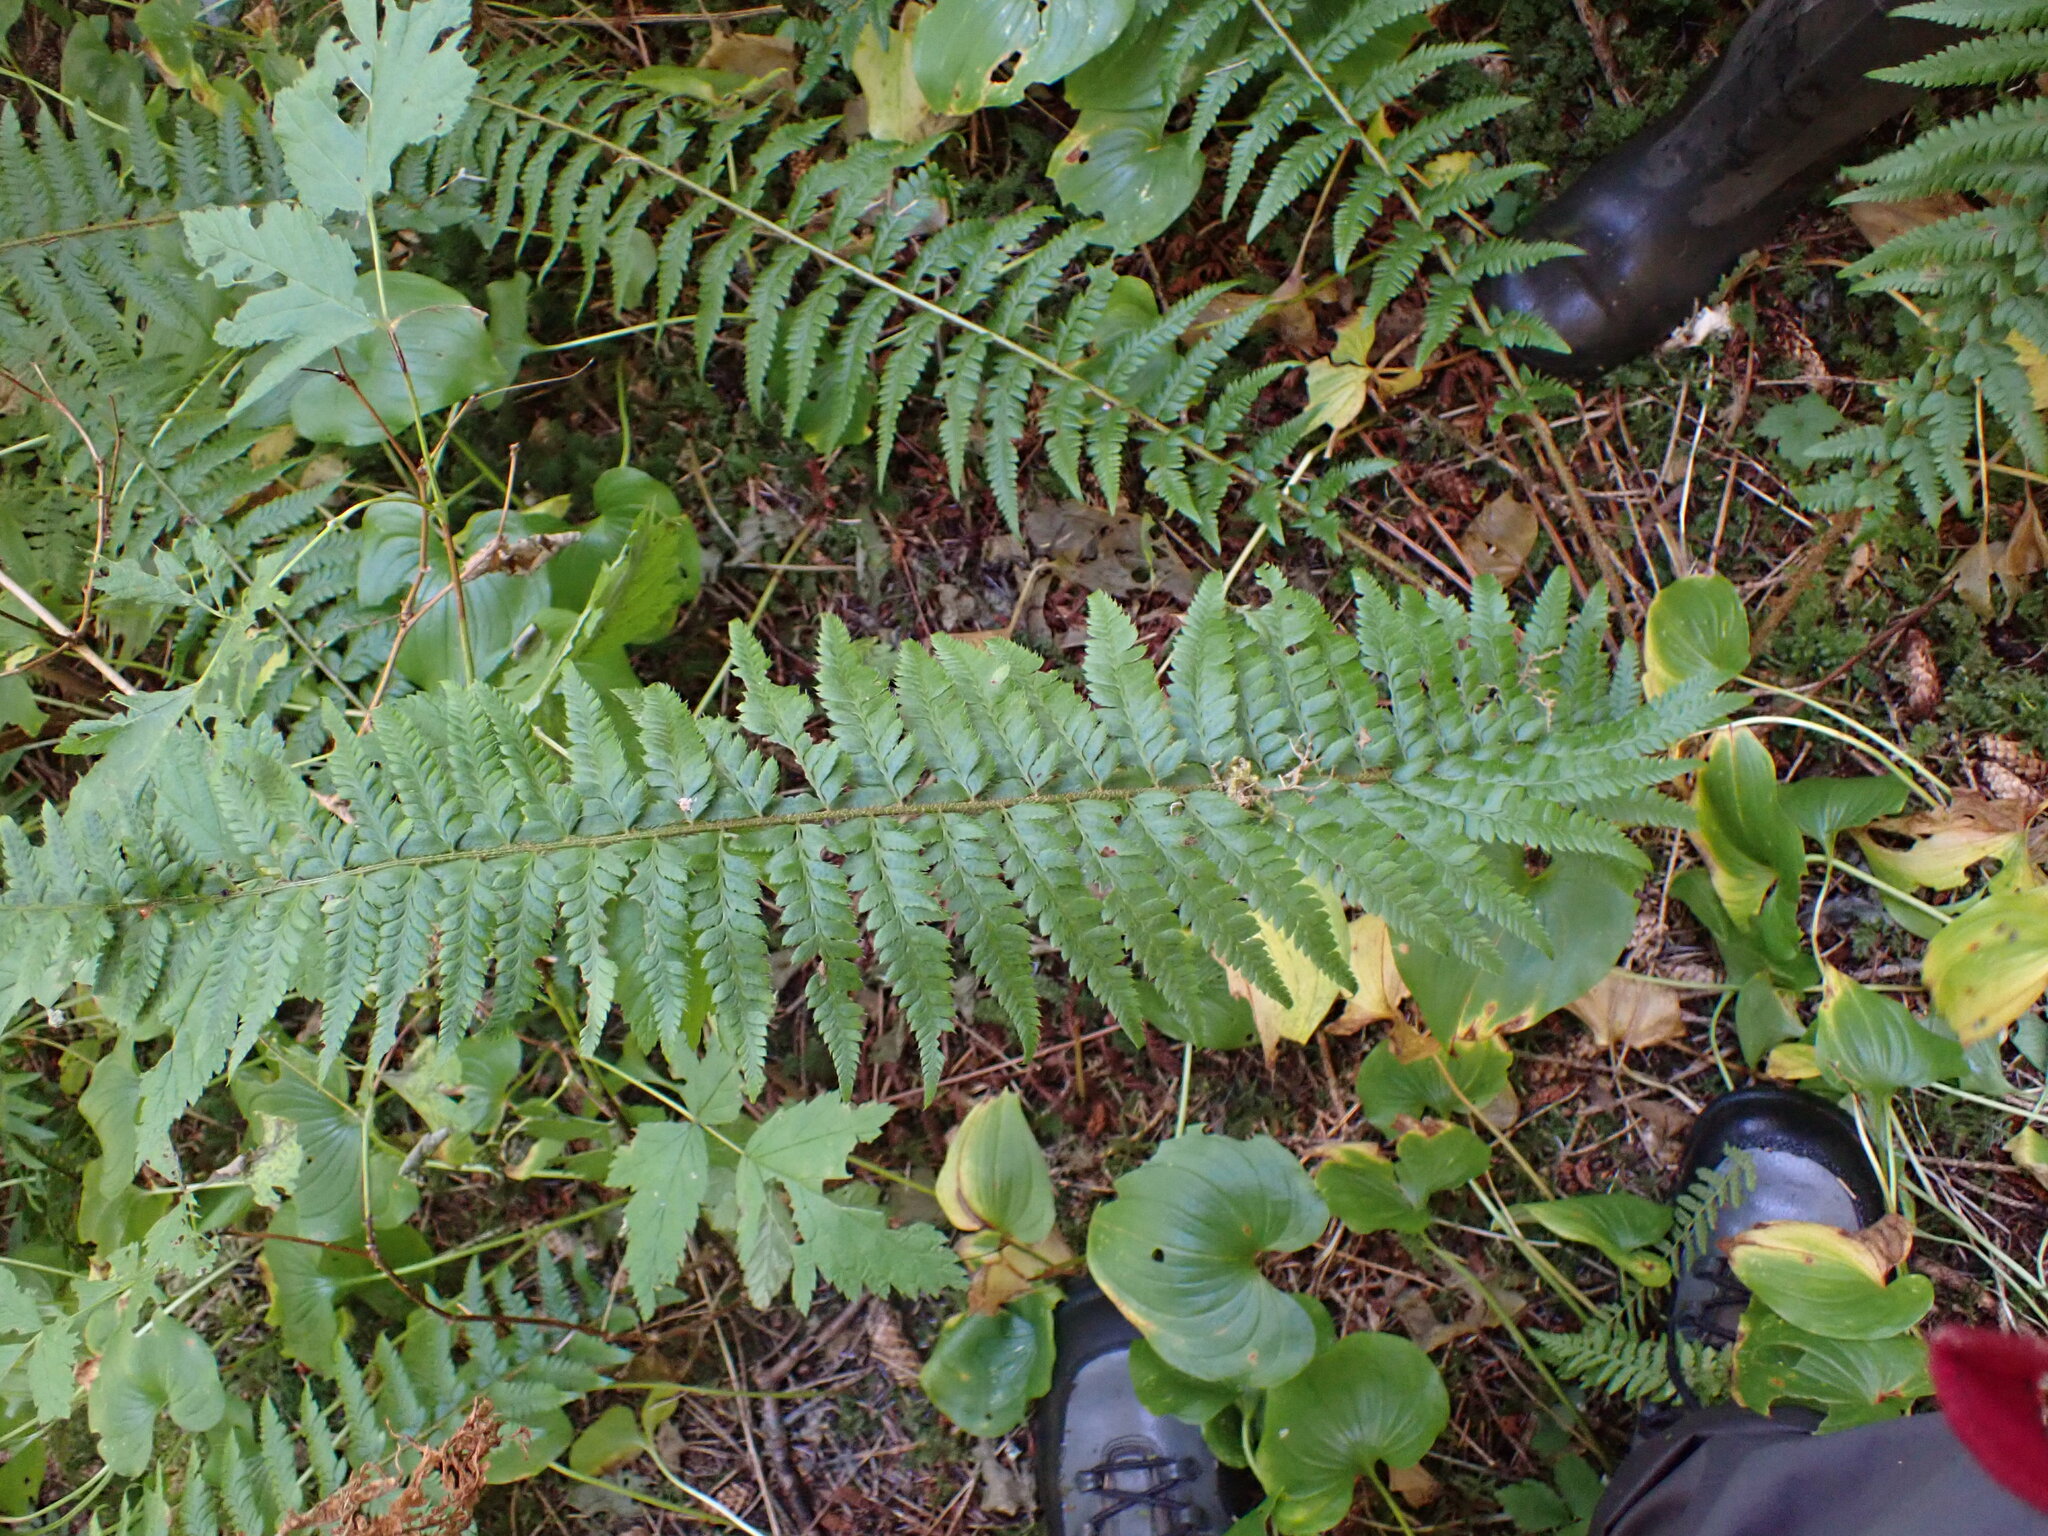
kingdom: Plantae
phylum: Tracheophyta
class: Polypodiopsida
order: Polypodiales
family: Dryopteridaceae
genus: Polystichum
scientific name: Polystichum andersonii
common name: Anderson's holly fern
